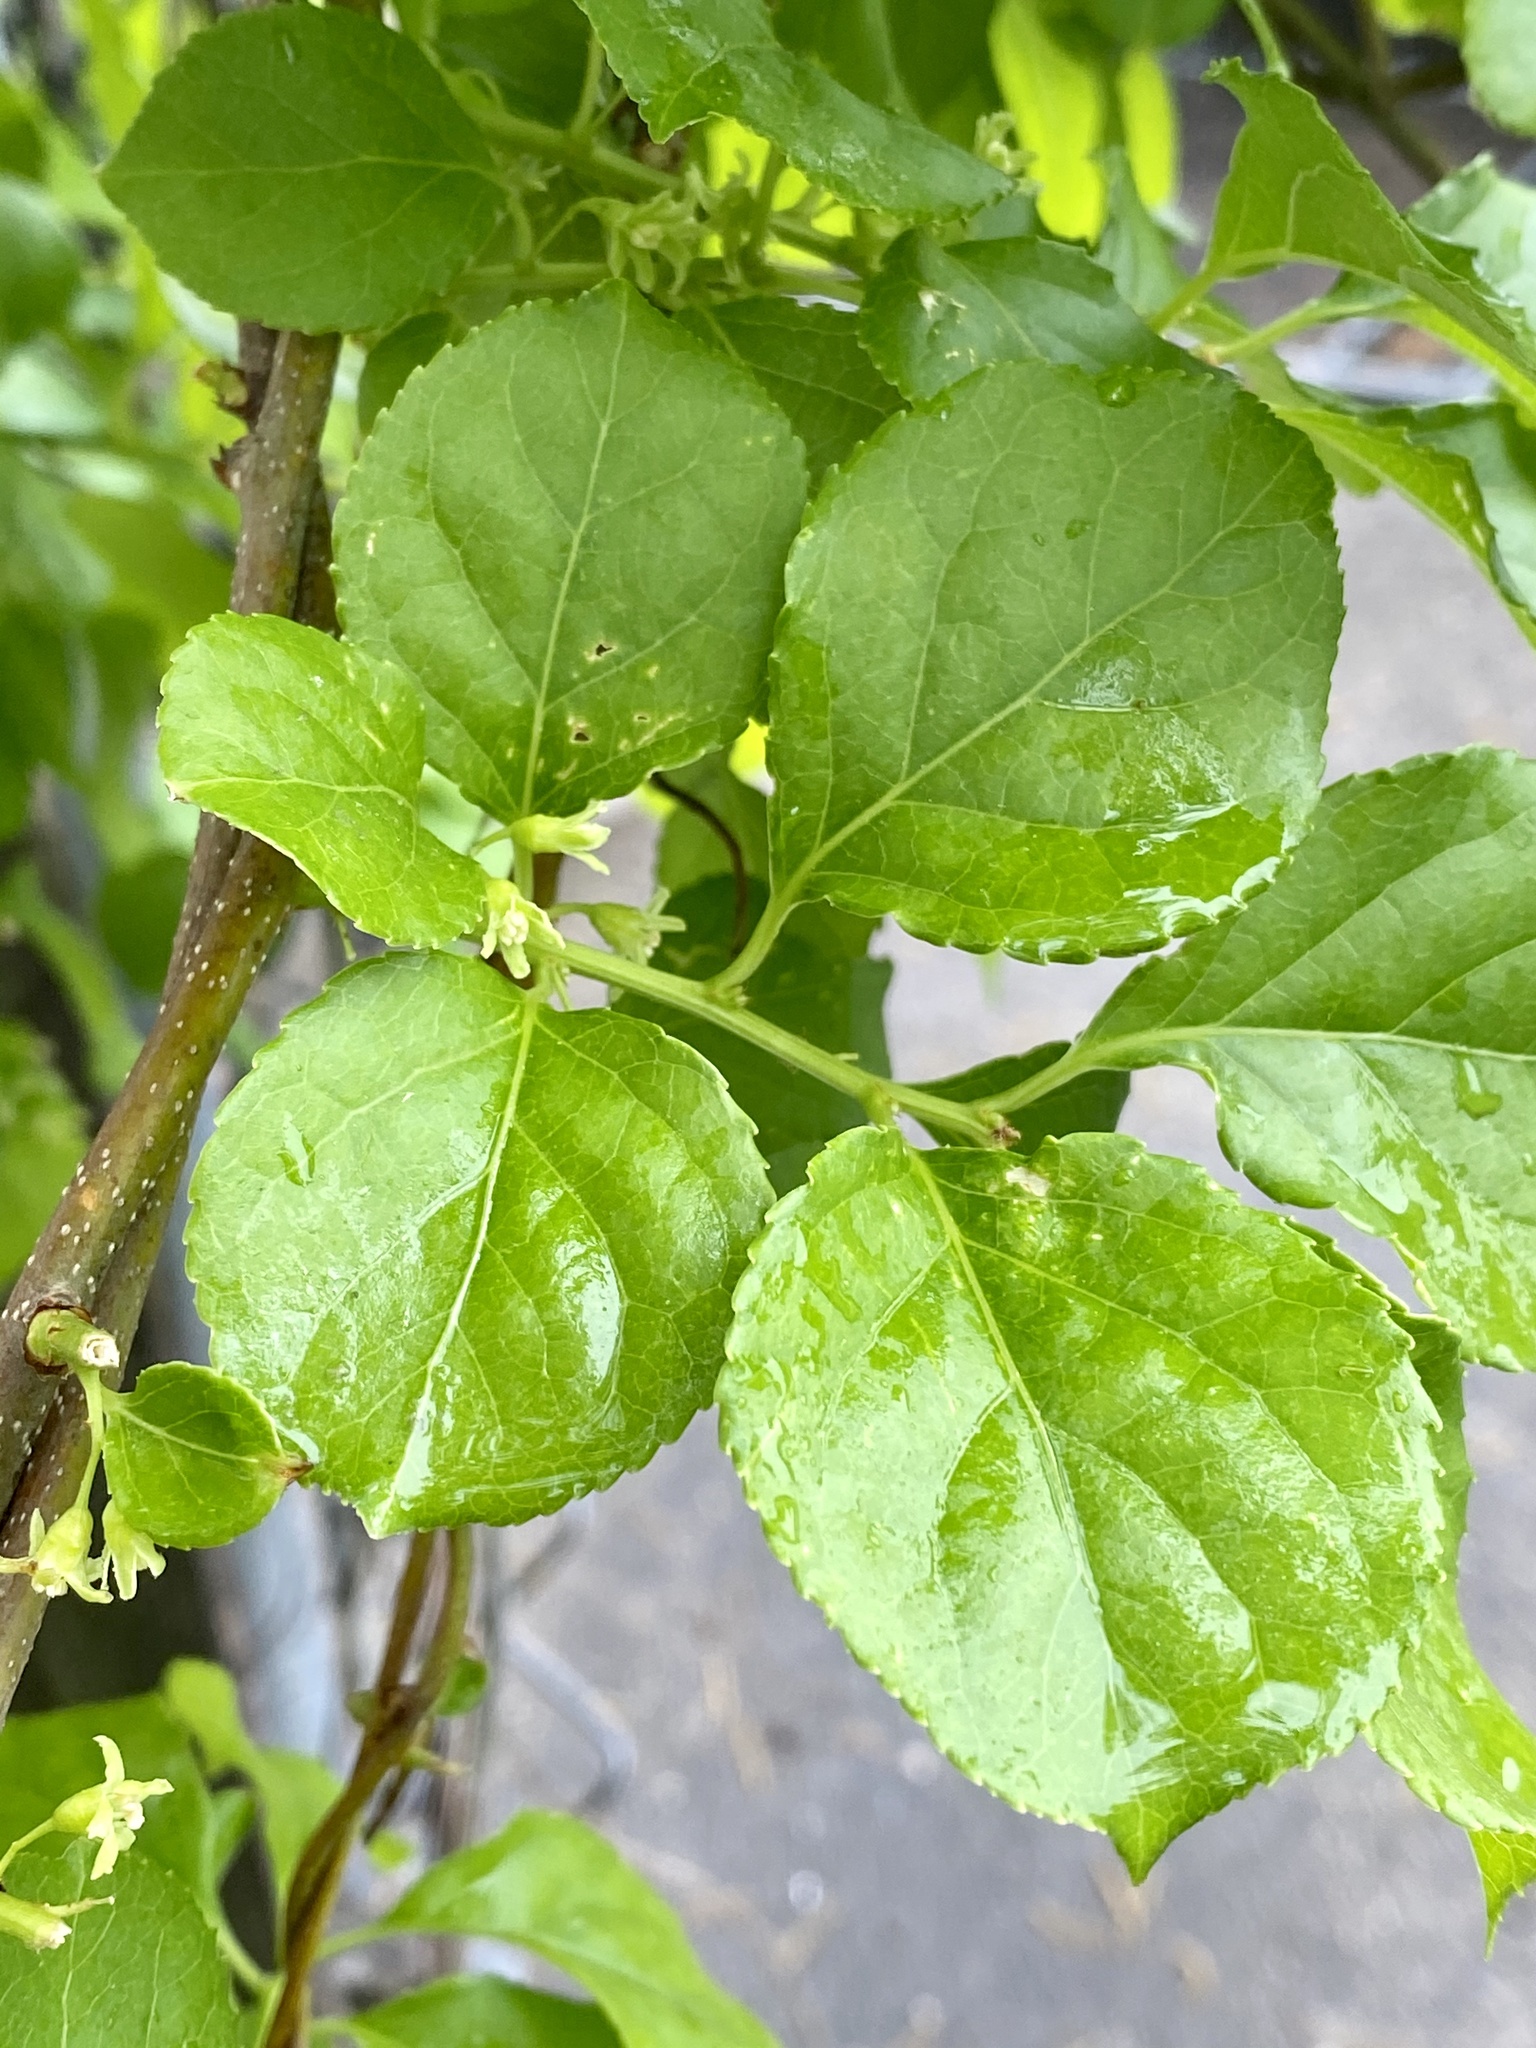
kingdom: Plantae
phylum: Tracheophyta
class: Magnoliopsida
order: Celastrales
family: Celastraceae
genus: Celastrus
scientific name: Celastrus orbiculatus
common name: Oriental bittersweet
